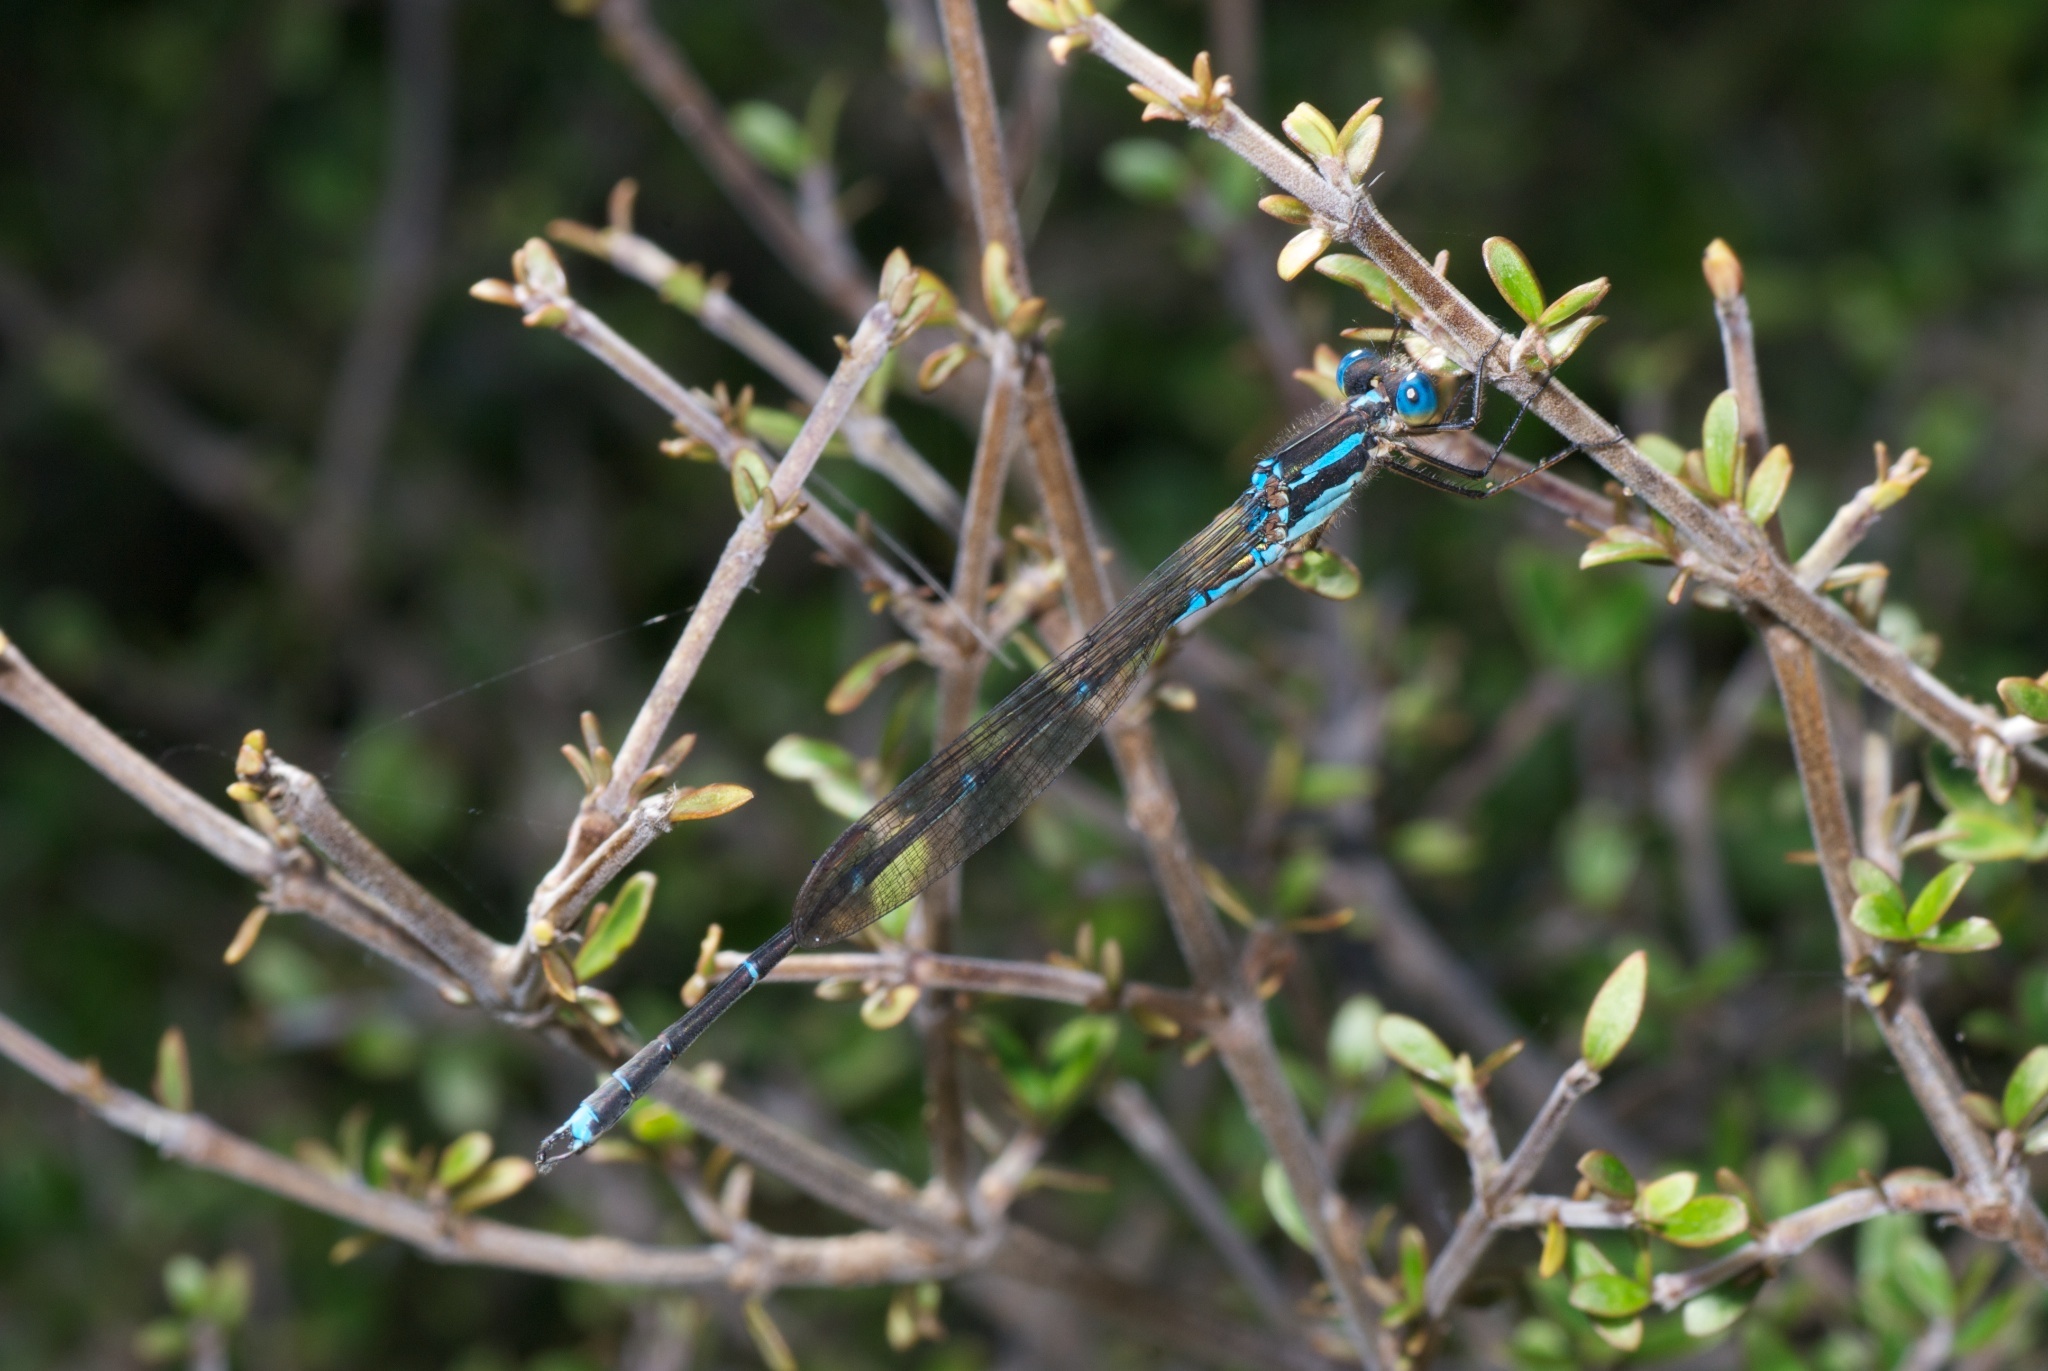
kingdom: Animalia
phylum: Arthropoda
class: Insecta
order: Odonata
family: Lestidae
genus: Austrolestes
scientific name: Austrolestes colensonis
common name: Blue damselfly
